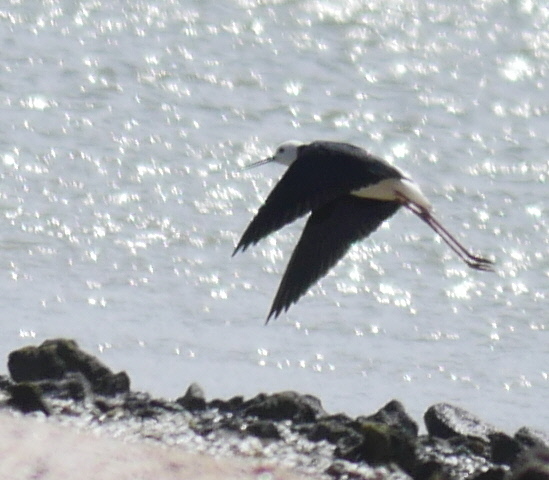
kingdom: Animalia
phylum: Chordata
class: Aves
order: Charadriiformes
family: Recurvirostridae
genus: Himantopus
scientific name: Himantopus leucocephalus
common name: White-headed stilt
